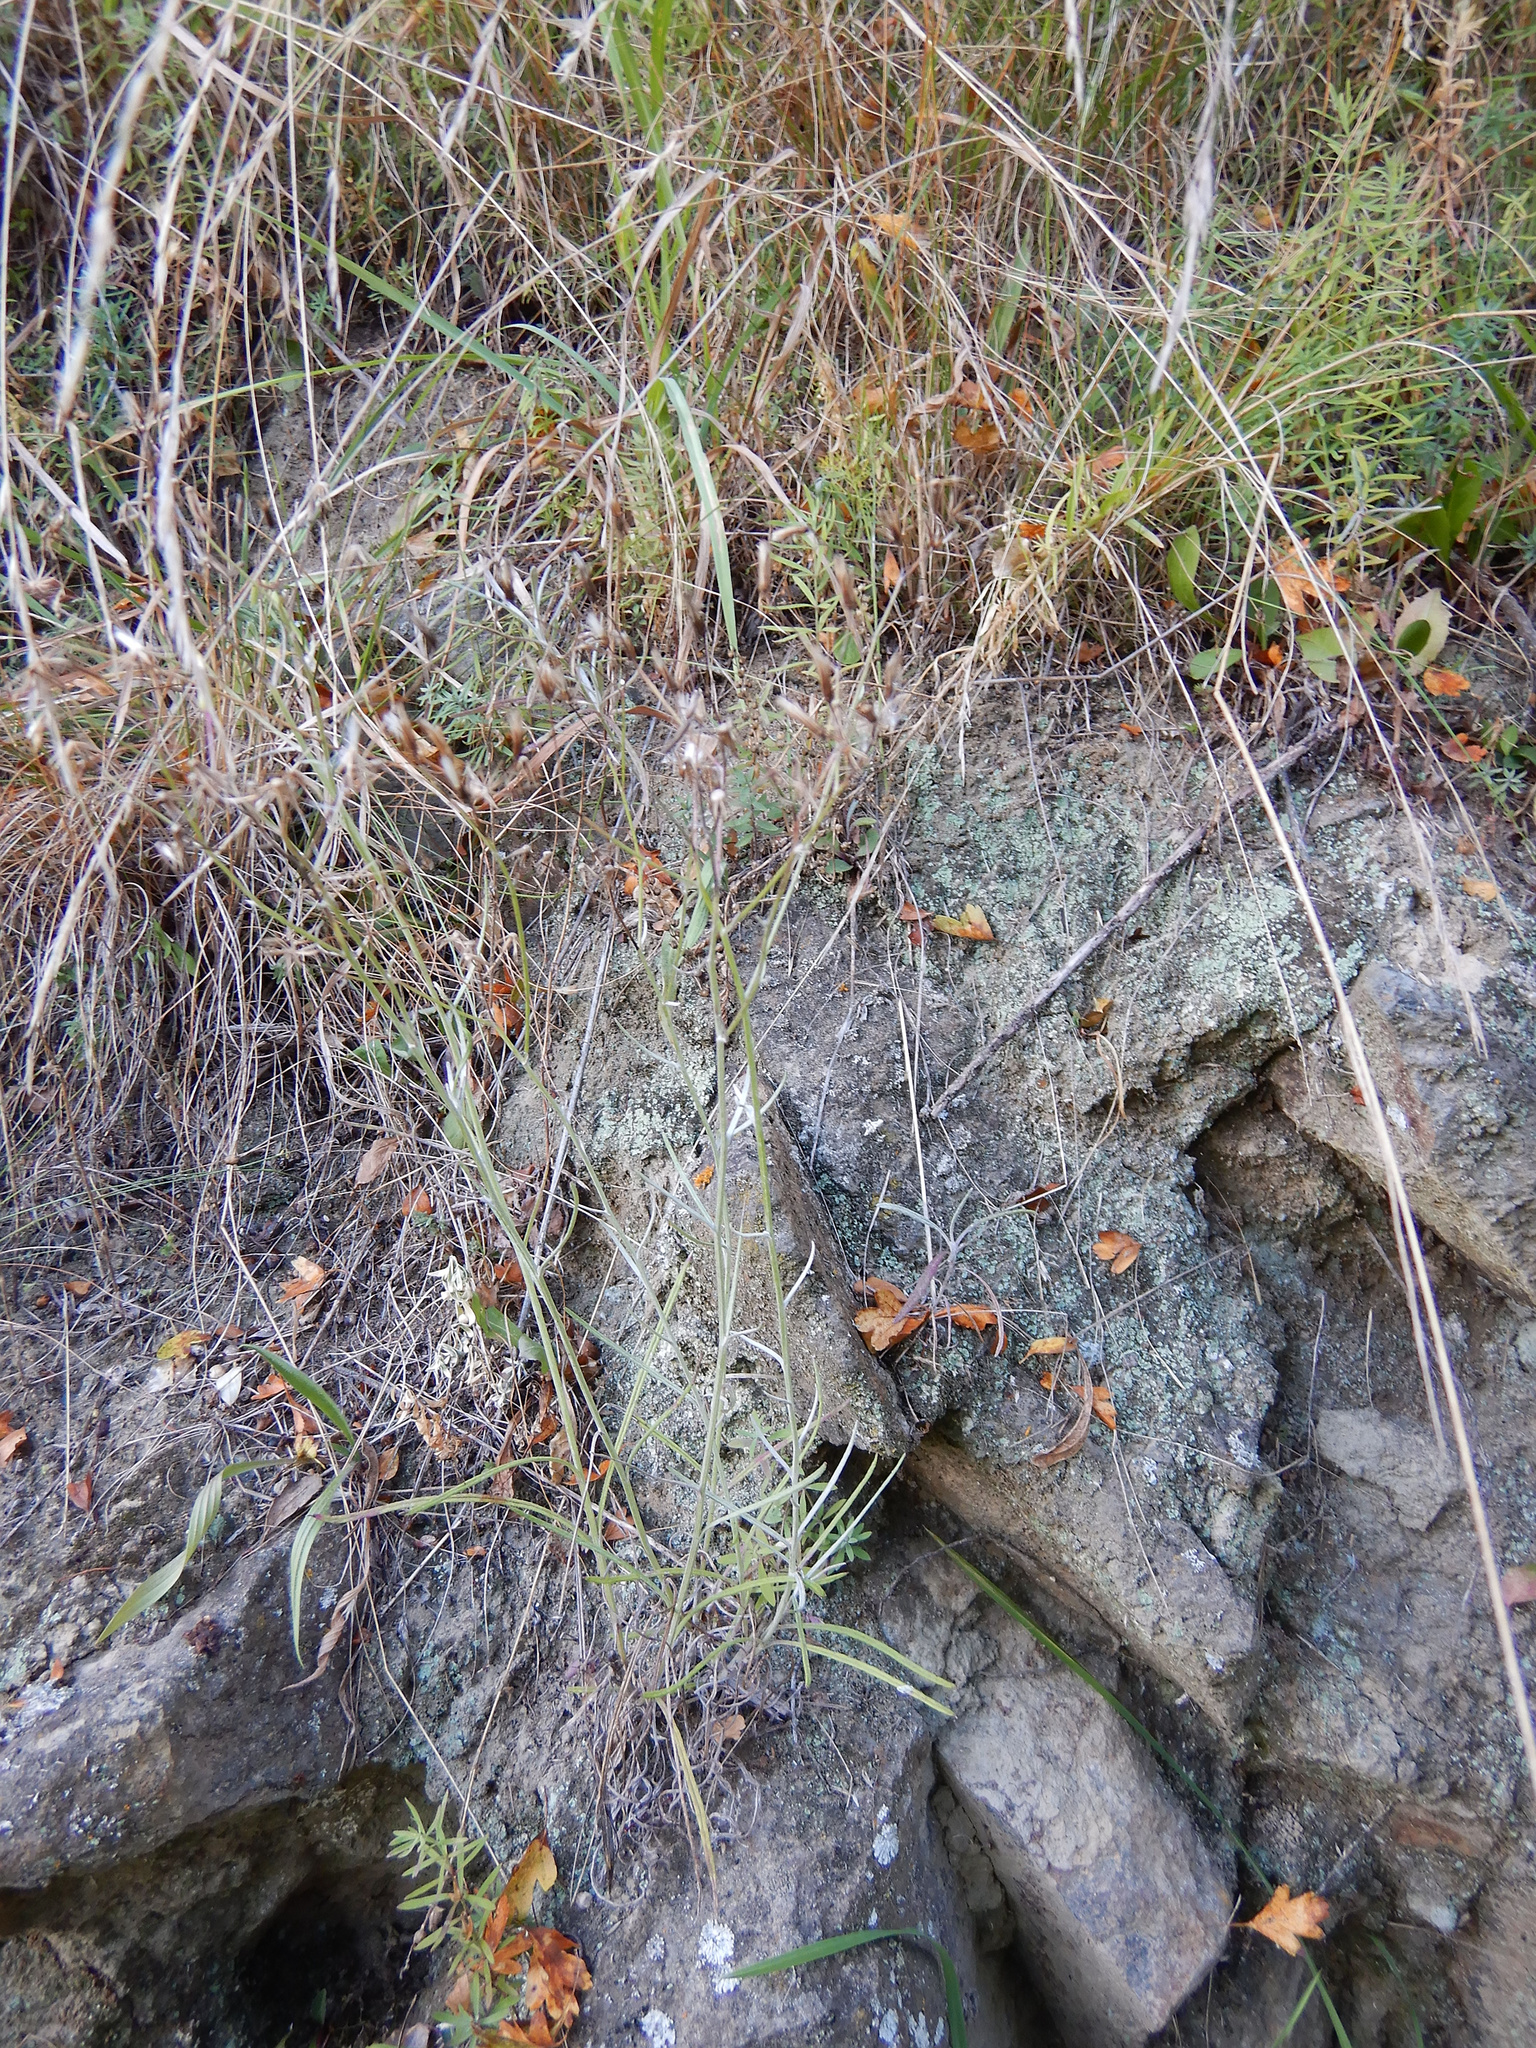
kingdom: Plantae
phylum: Tracheophyta
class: Magnoliopsida
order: Asterales
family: Asteraceae
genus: Senecio
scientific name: Senecio quadridentatus
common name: Cotton fireweed
